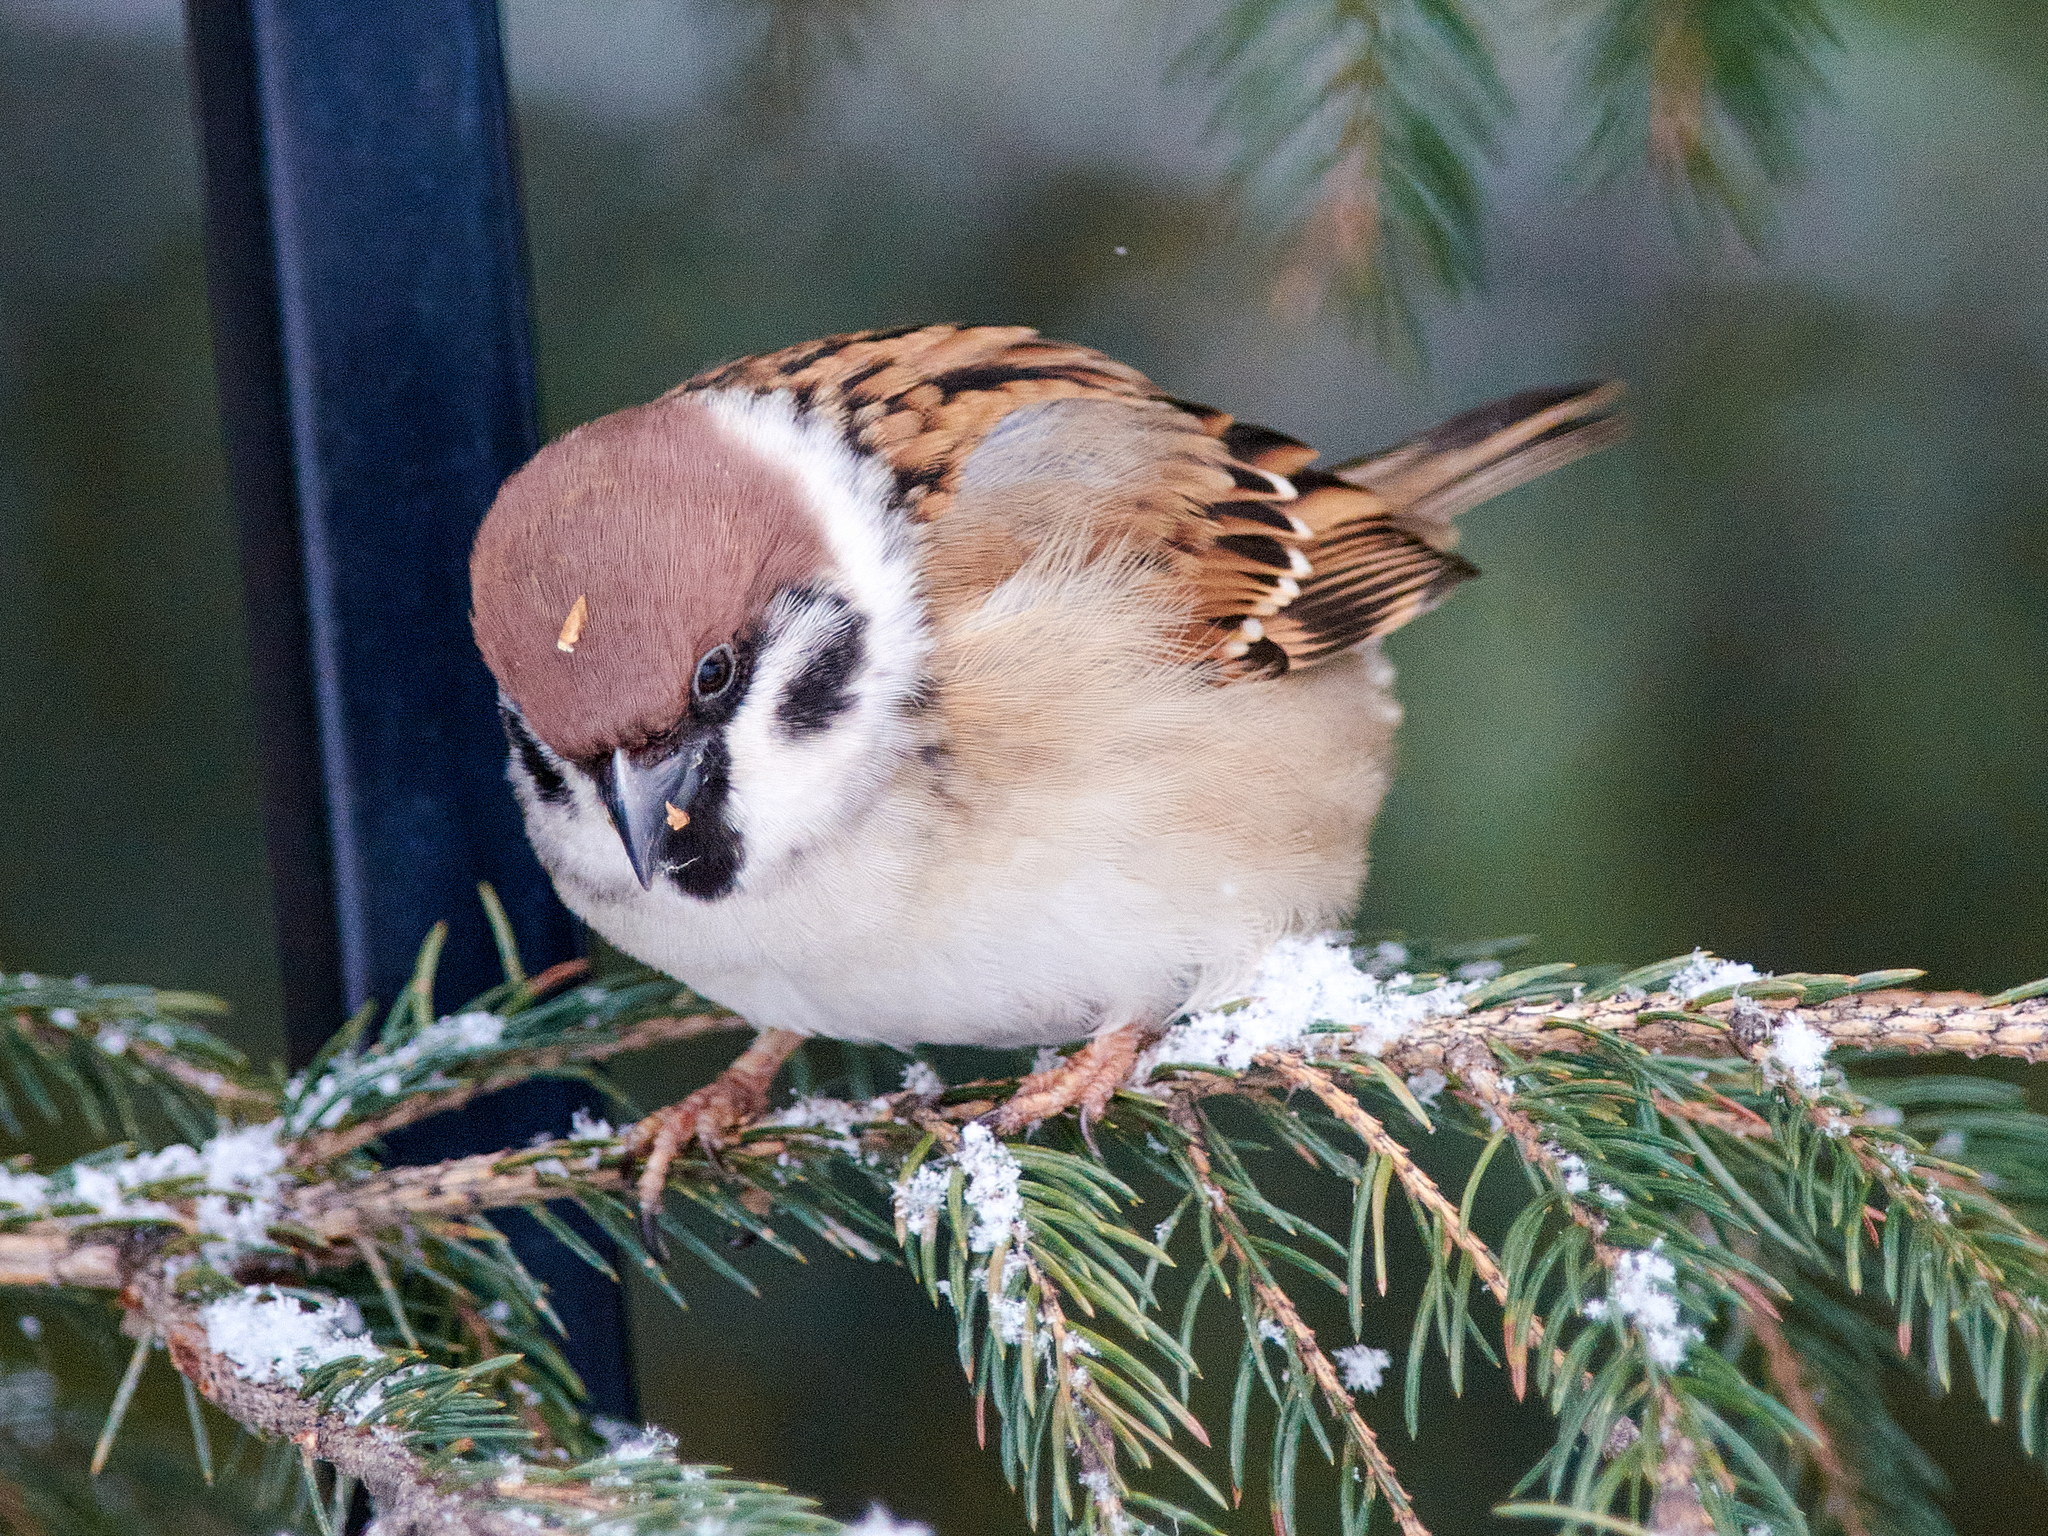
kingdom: Animalia
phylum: Chordata
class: Aves
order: Passeriformes
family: Passeridae
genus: Passer
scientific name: Passer montanus
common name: Eurasian tree sparrow
